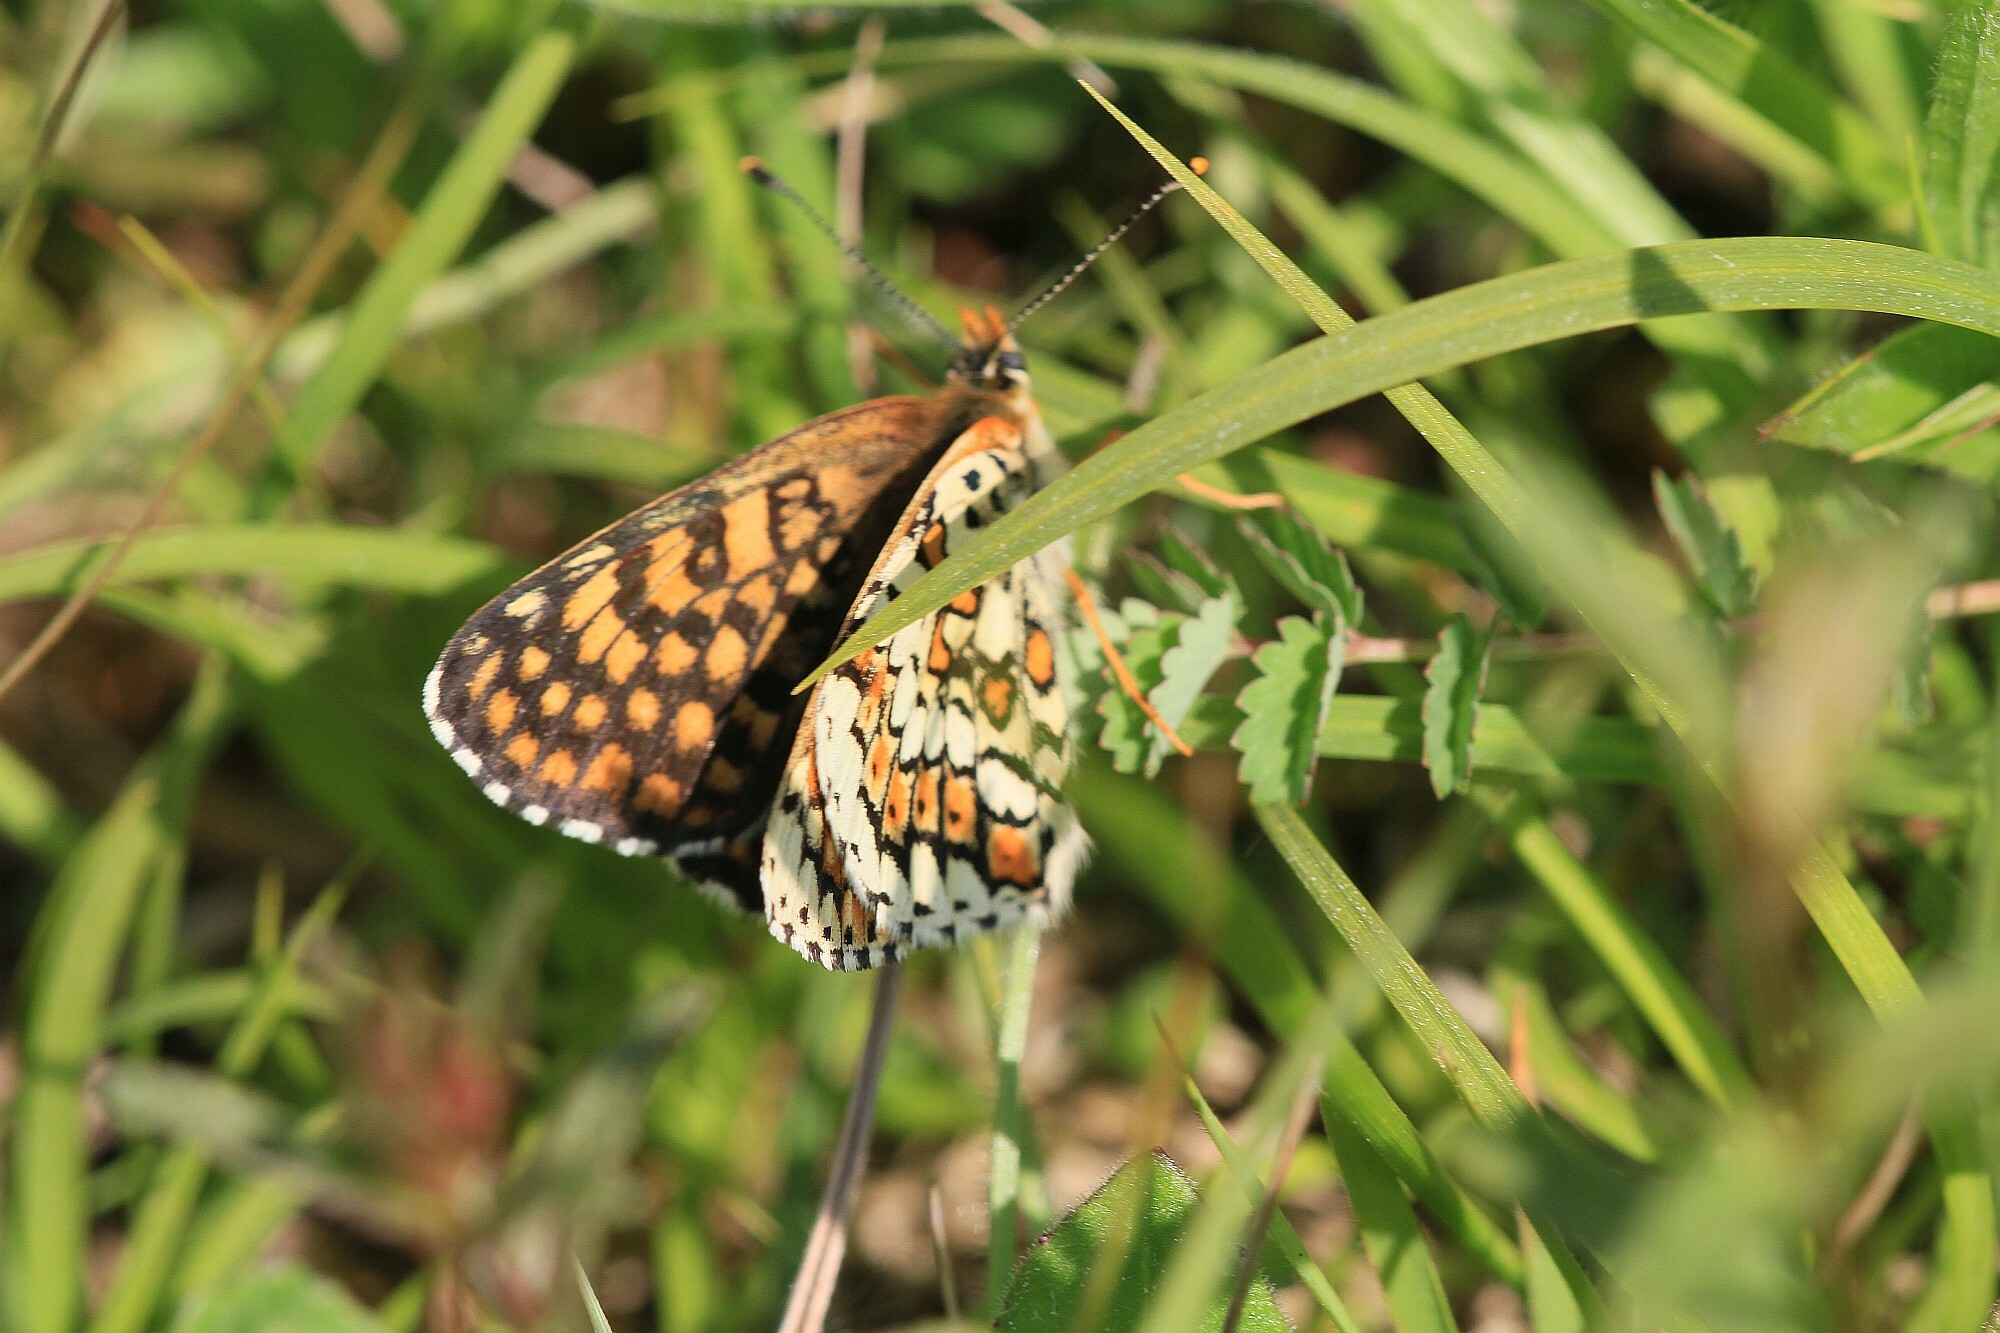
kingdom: Animalia
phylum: Arthropoda
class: Insecta
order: Lepidoptera
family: Nymphalidae
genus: Melitaea
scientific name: Melitaea cinxia
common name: Glanville fritillary
